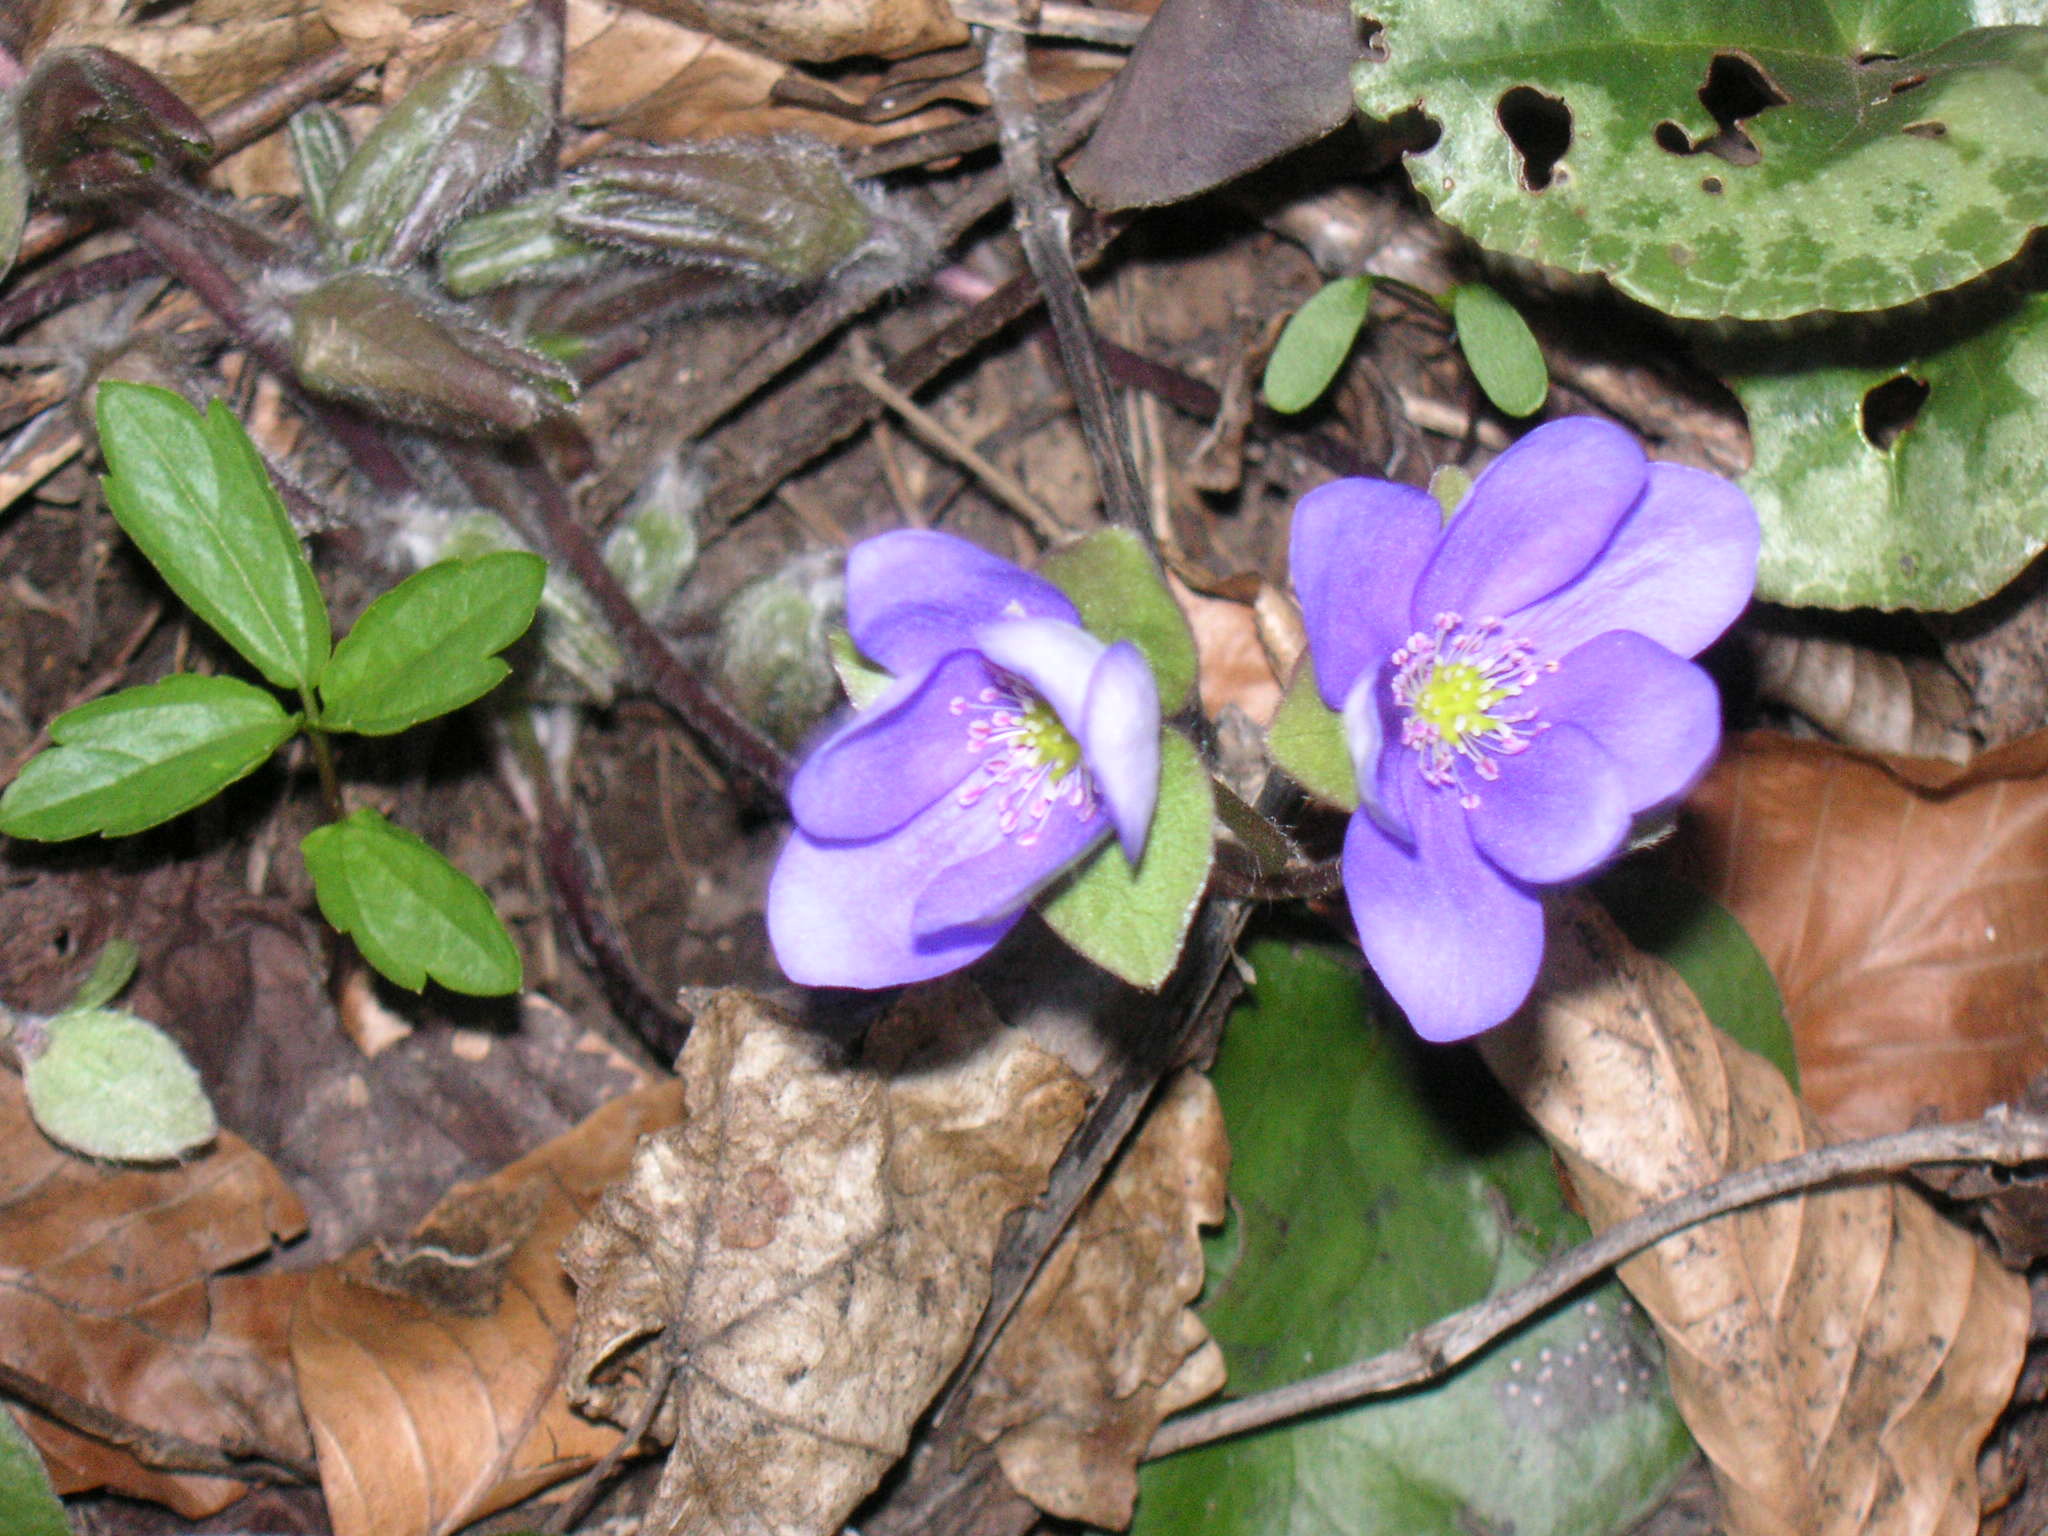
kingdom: Plantae
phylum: Tracheophyta
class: Magnoliopsida
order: Ranunculales
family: Ranunculaceae
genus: Hepatica
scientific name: Hepatica nobilis
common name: Liverleaf
